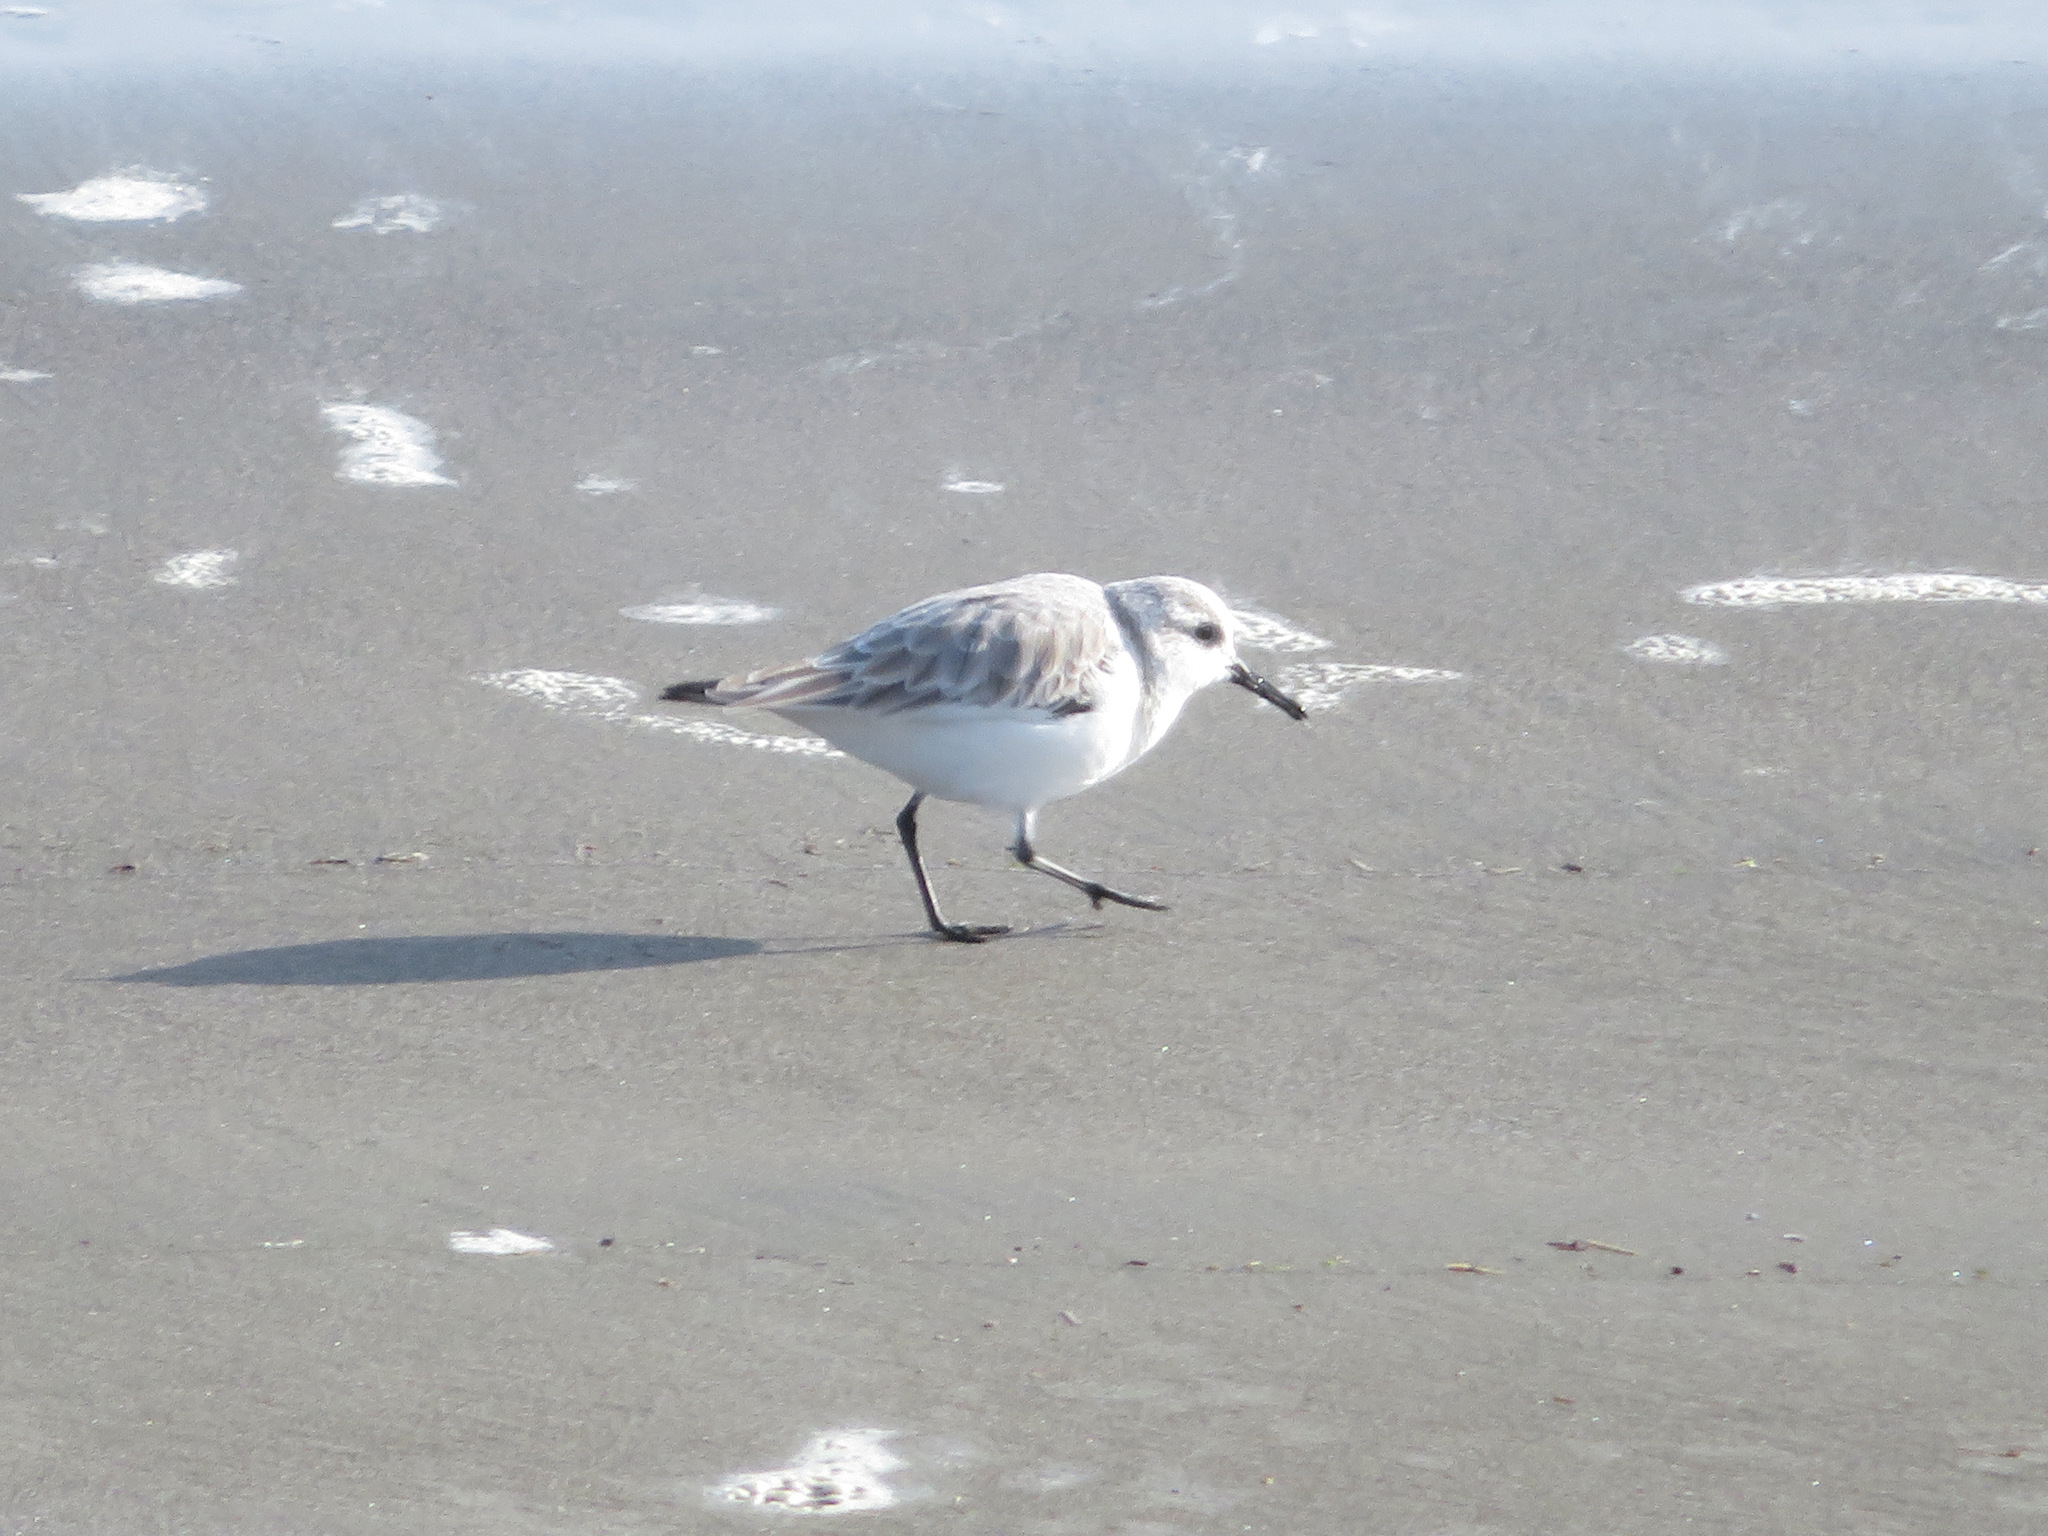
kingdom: Animalia
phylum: Chordata
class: Aves
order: Charadriiformes
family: Scolopacidae
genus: Calidris
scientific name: Calidris alba
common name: Sanderling
